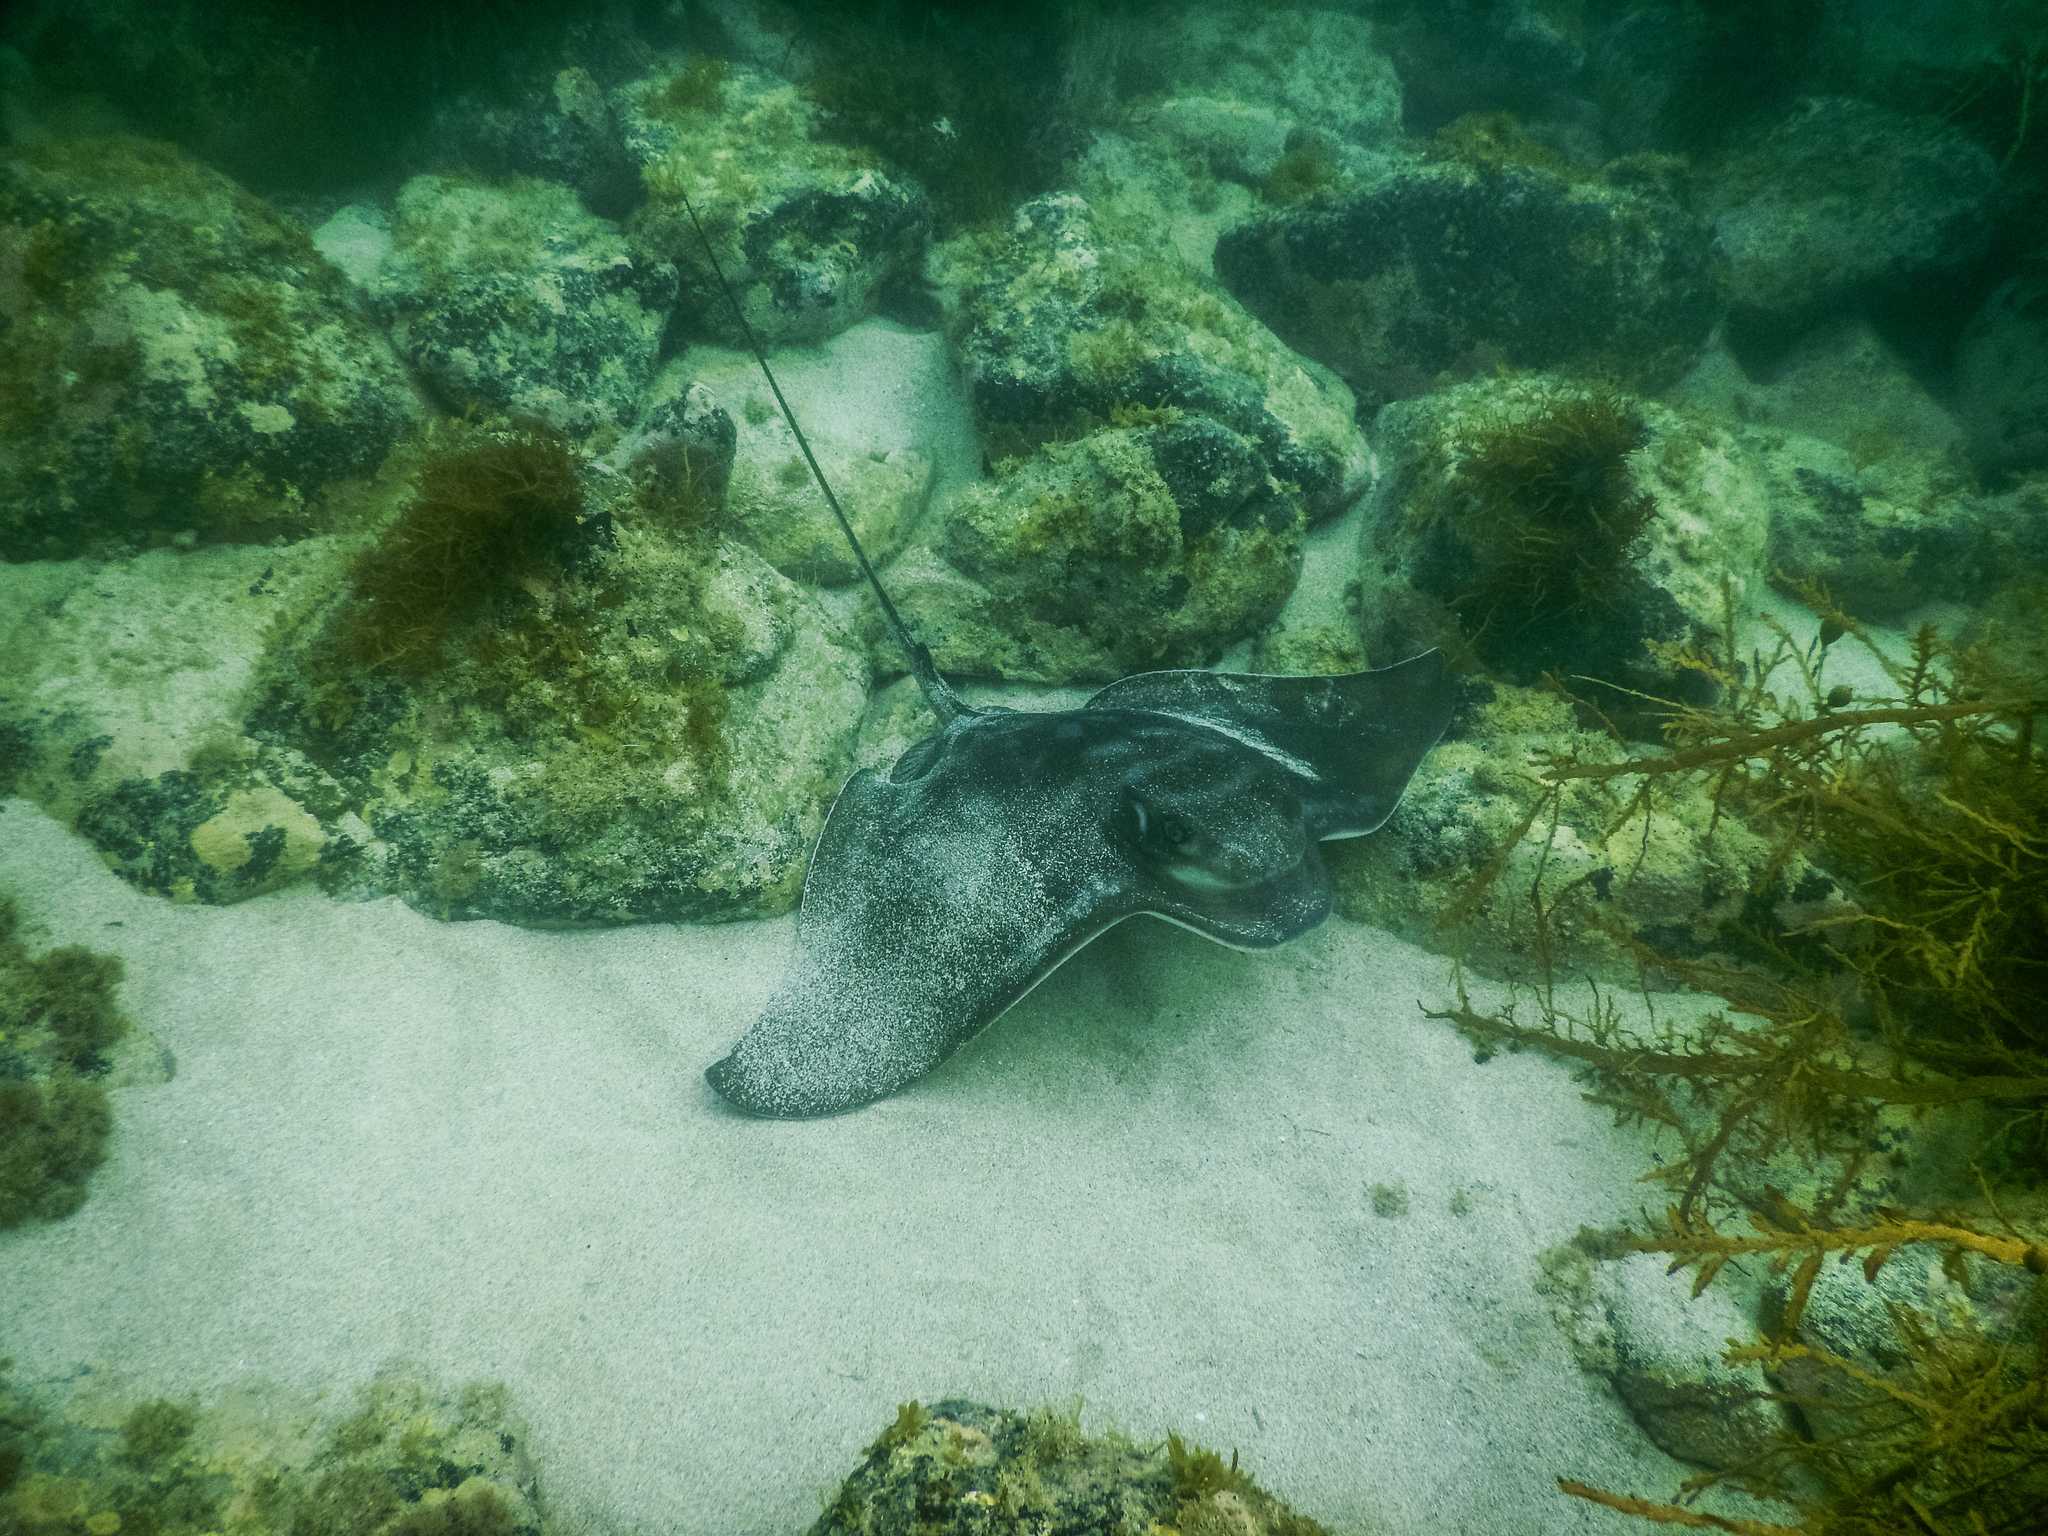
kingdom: Animalia
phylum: Chordata
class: Elasmobranchii
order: Myliobatiformes
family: Myliobatidae
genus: Myliobatis
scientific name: Myliobatis tenuicaudatus
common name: Eagle ray
